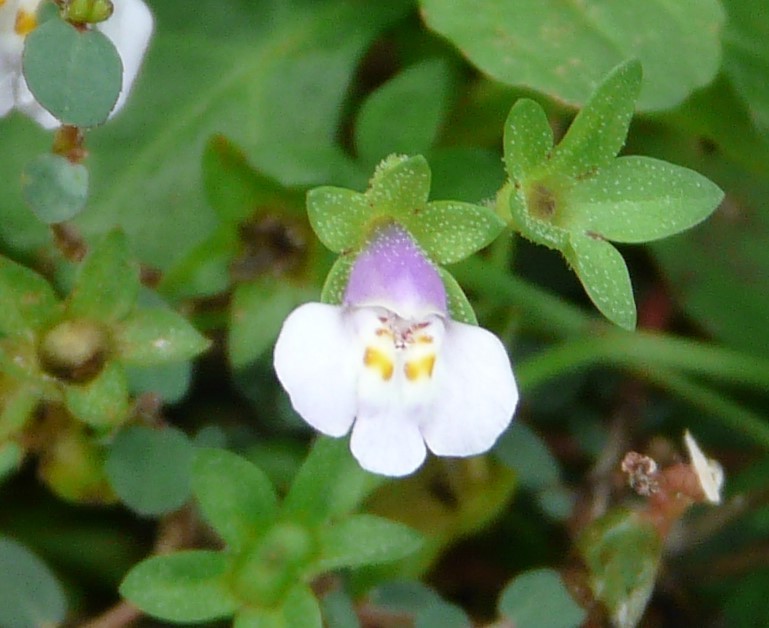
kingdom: Plantae
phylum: Tracheophyta
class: Magnoliopsida
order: Lamiales
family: Mazaceae
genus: Mazus
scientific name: Mazus pumilus
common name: Japanese mazus
